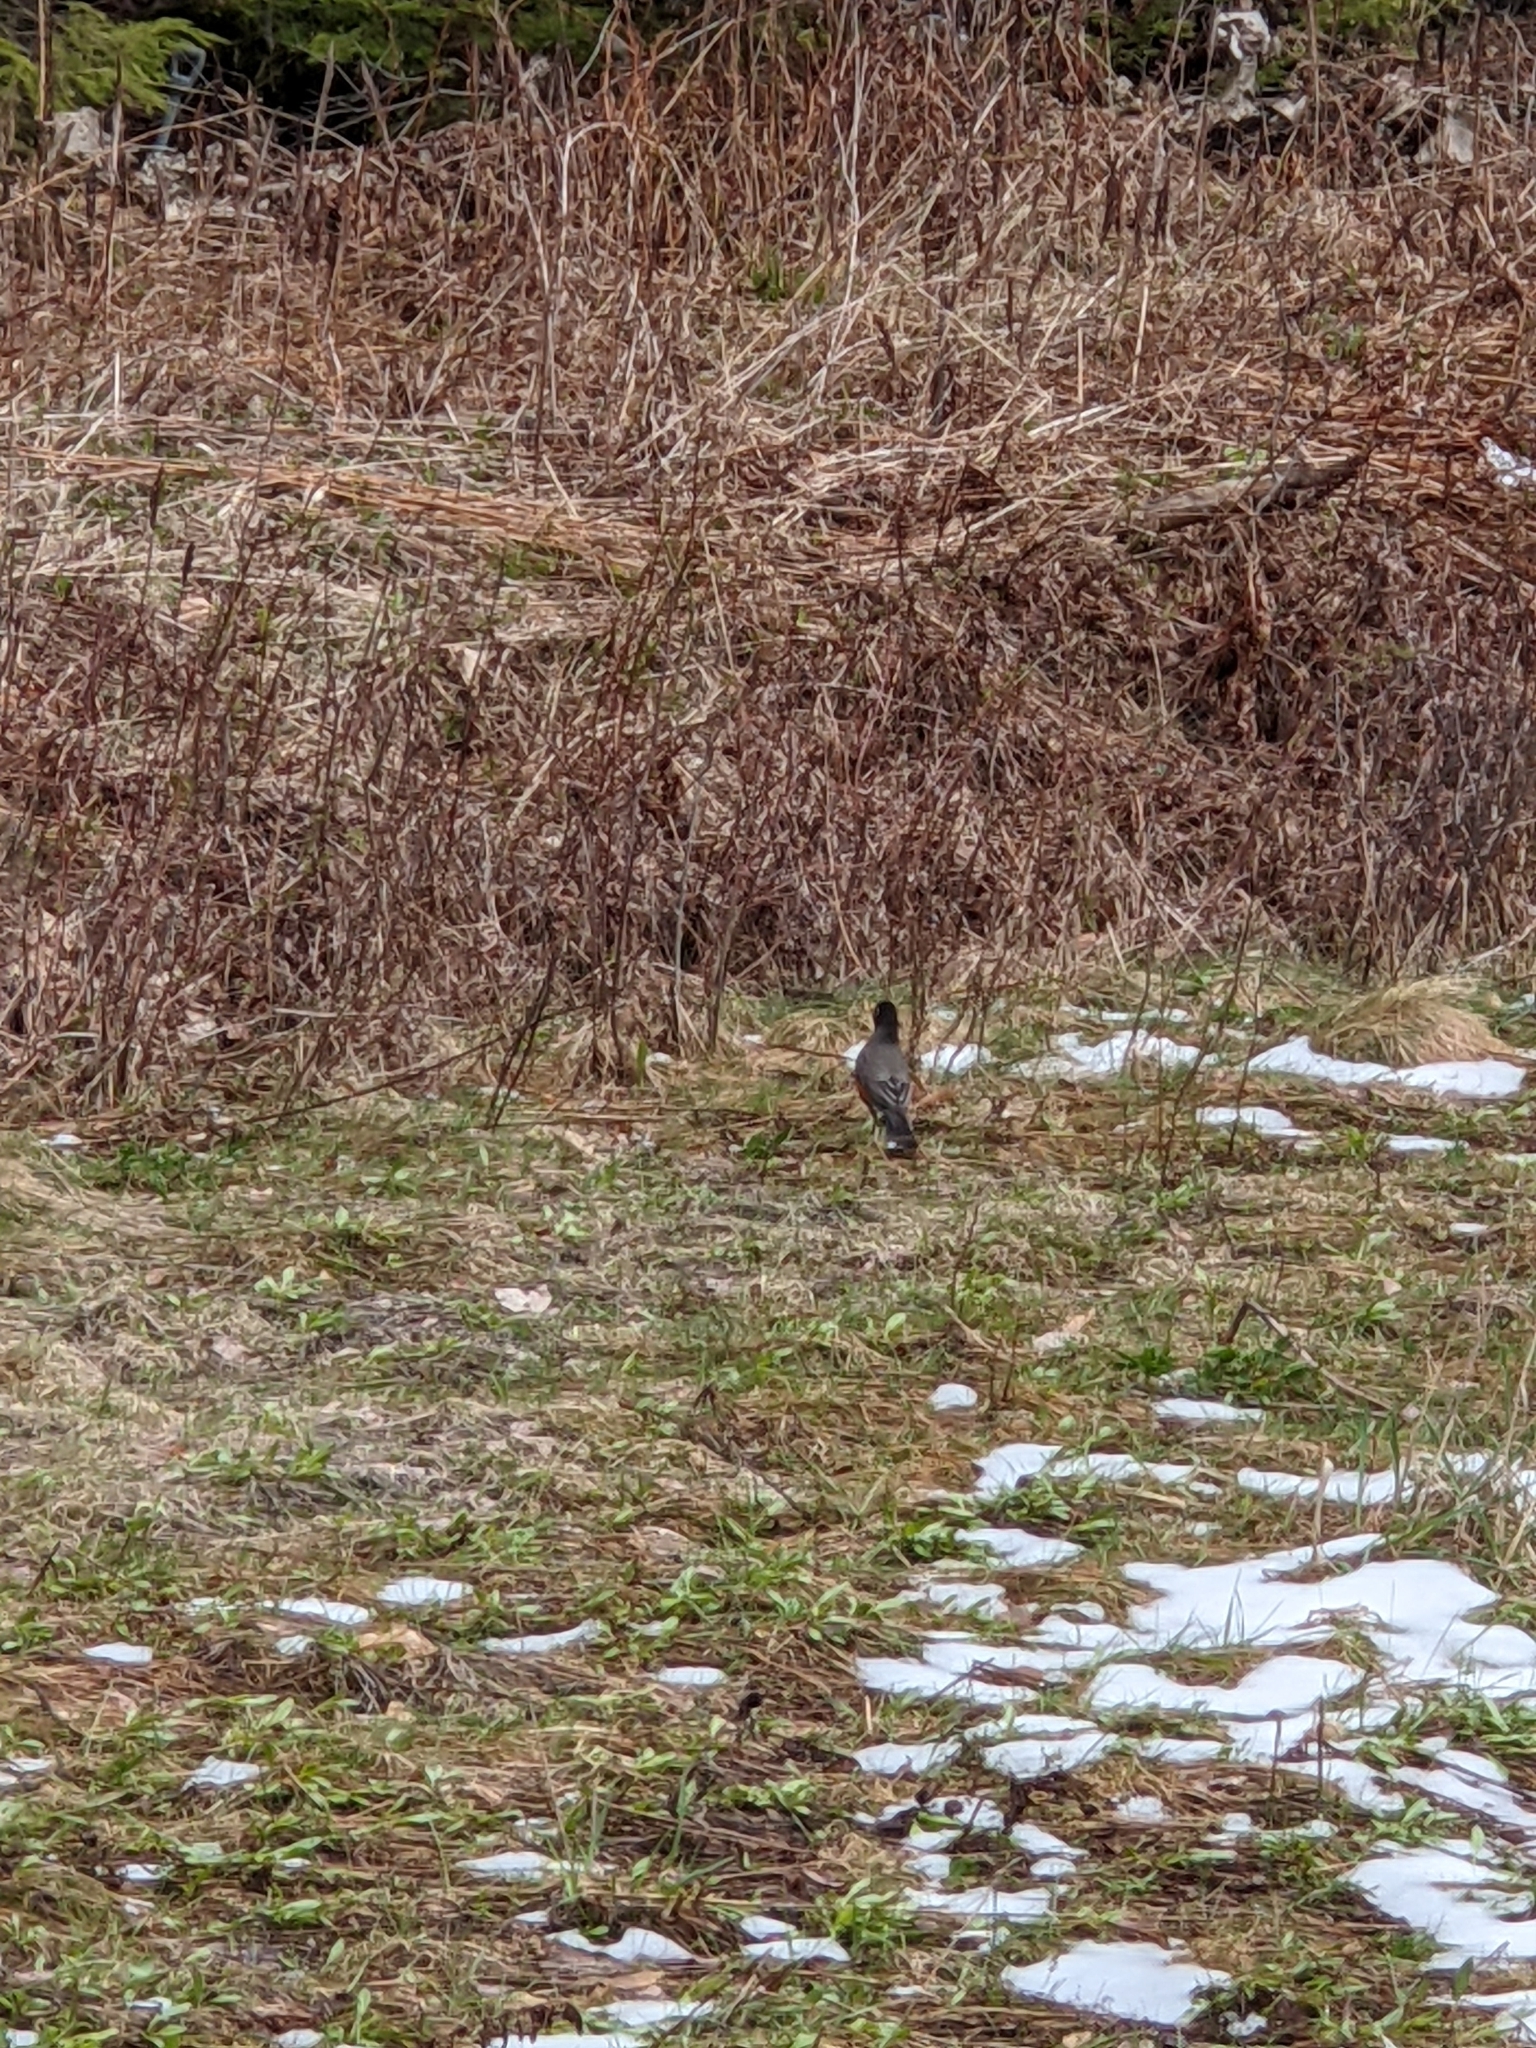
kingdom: Animalia
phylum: Chordata
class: Aves
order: Passeriformes
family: Turdidae
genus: Turdus
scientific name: Turdus migratorius
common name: American robin
